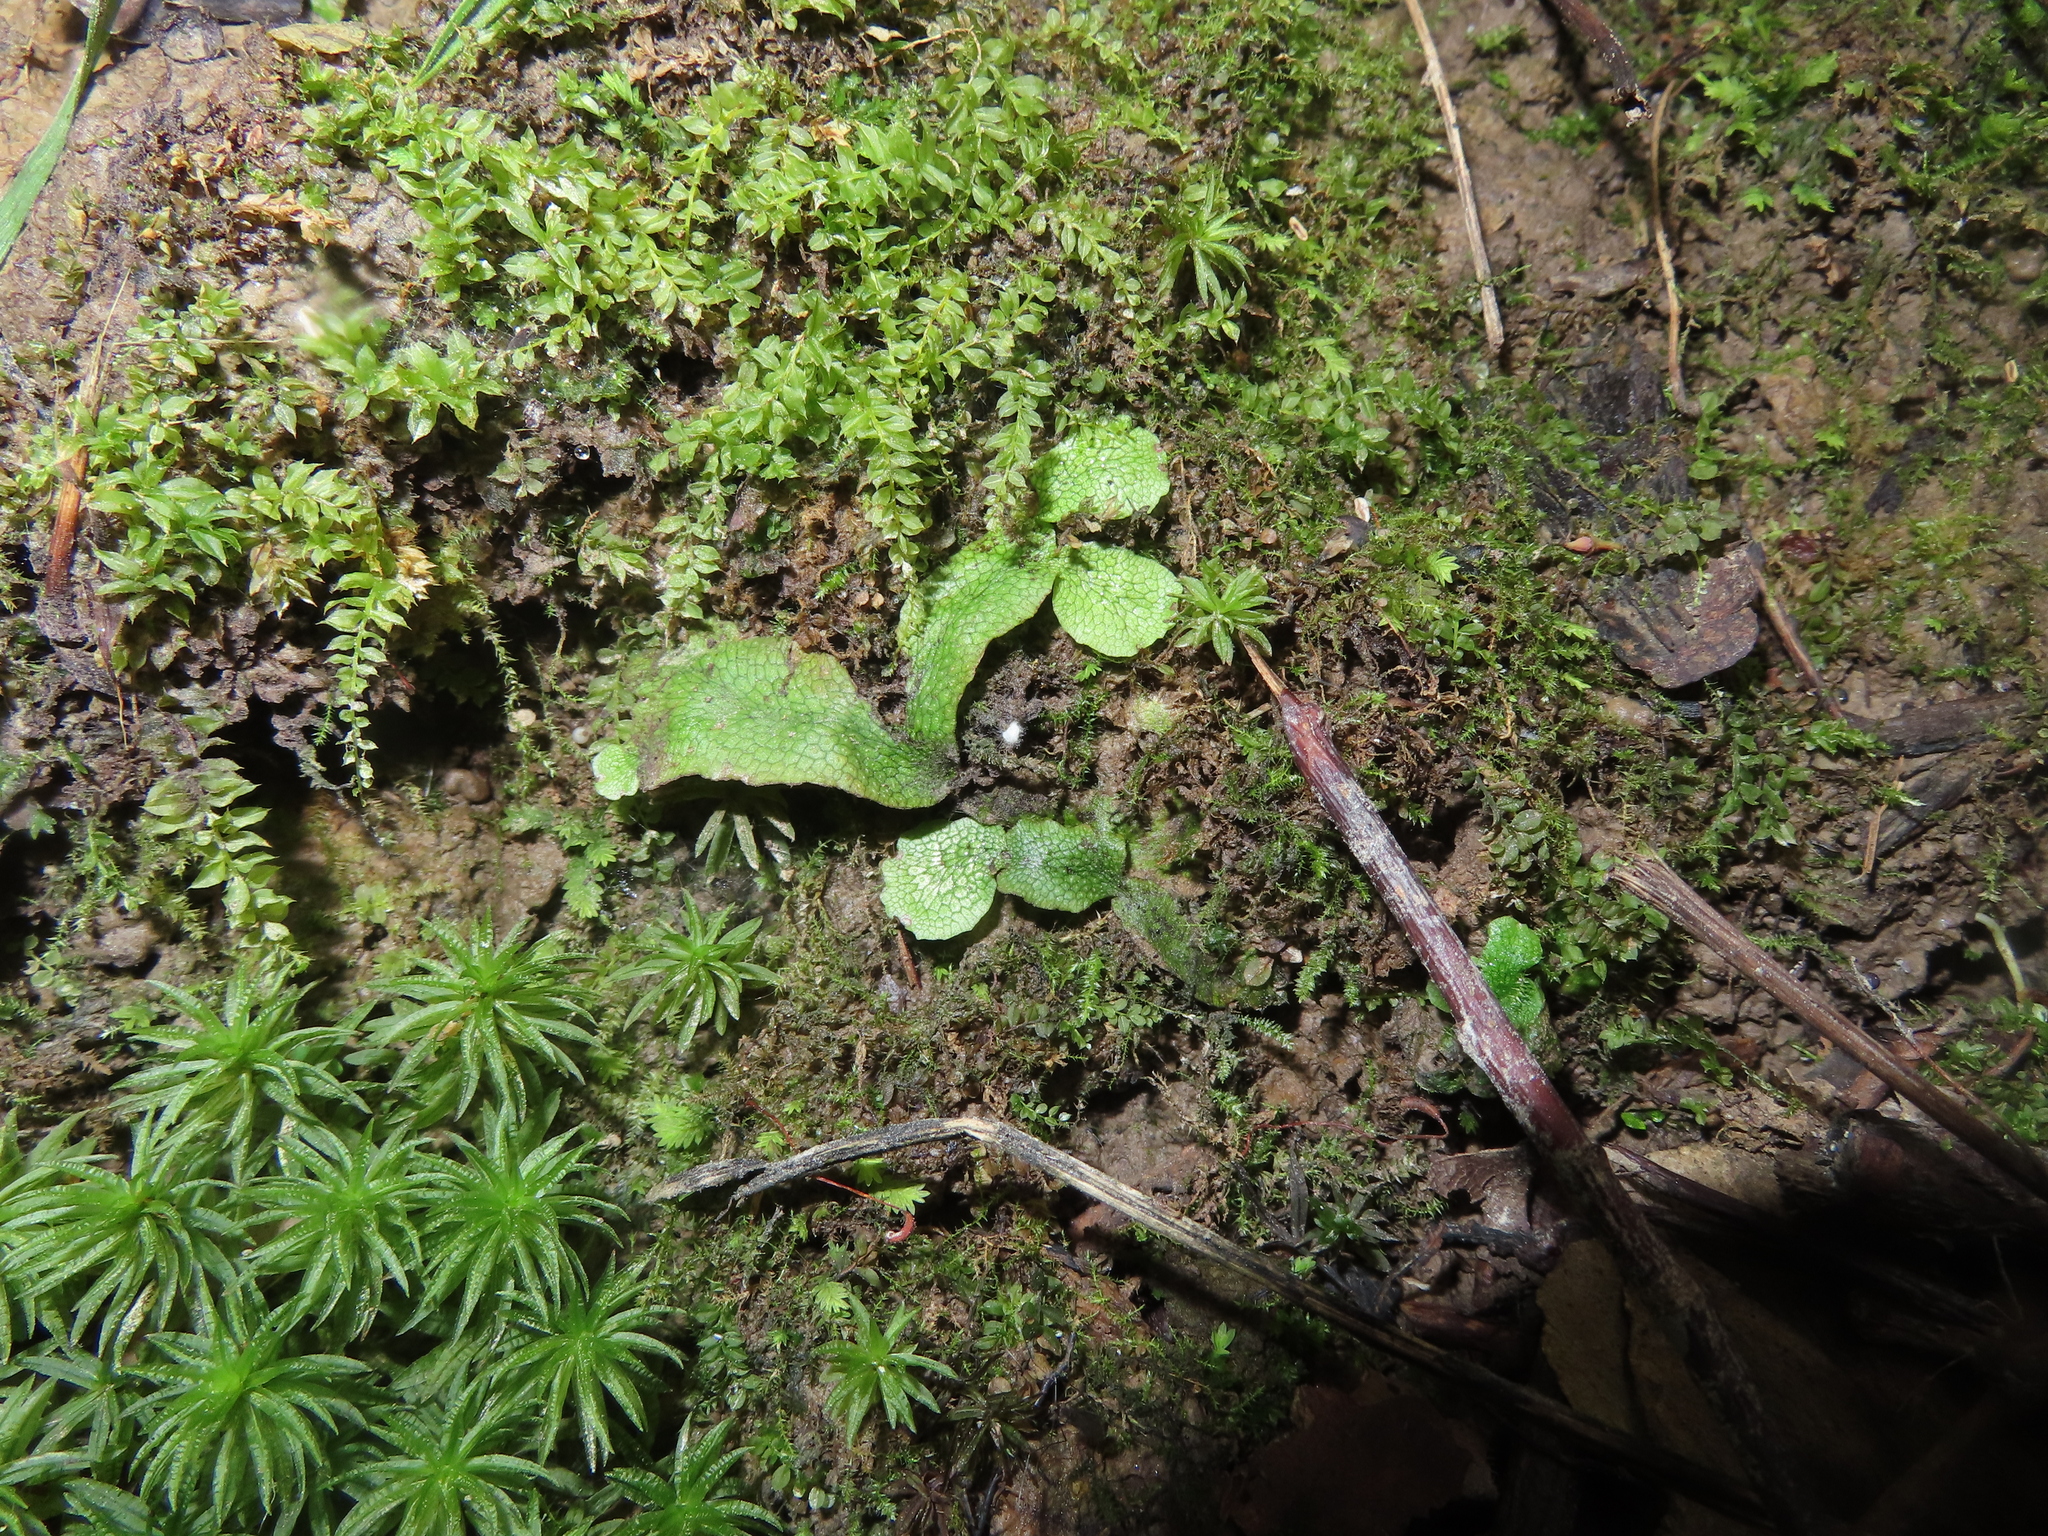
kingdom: Plantae
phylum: Marchantiophyta
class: Marchantiopsida
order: Marchantiales
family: Conocephalaceae
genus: Conocephalum
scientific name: Conocephalum salebrosum
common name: Cat-tongue liverwort
